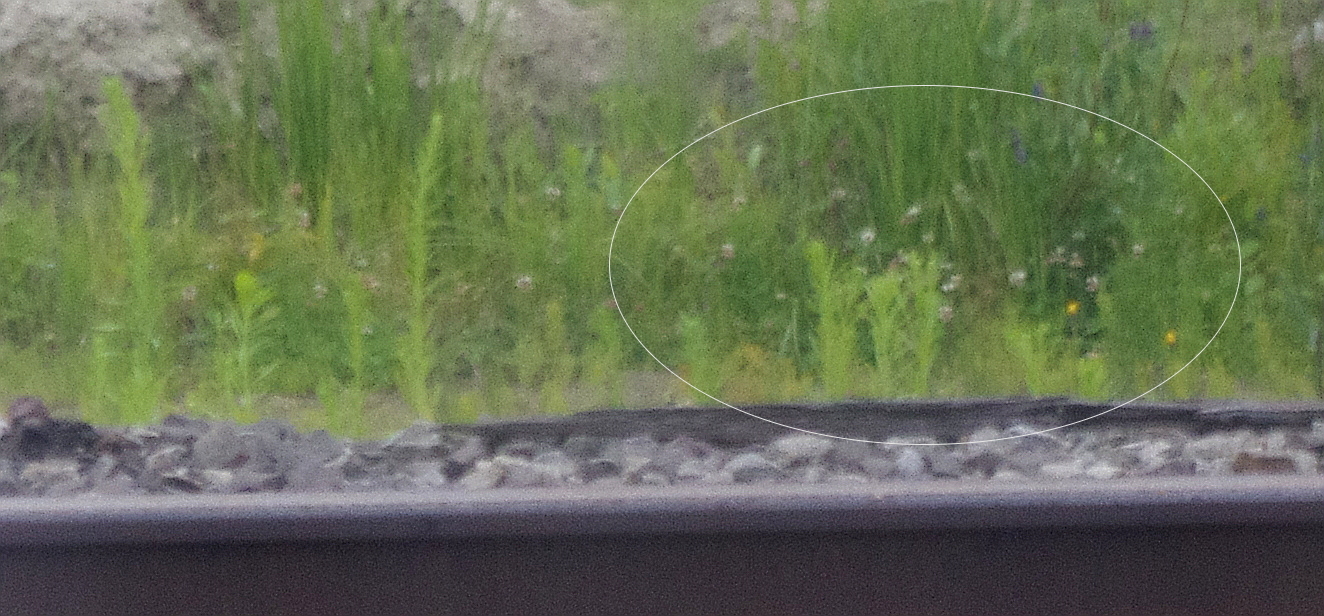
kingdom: Plantae
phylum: Tracheophyta
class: Magnoliopsida
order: Fabales
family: Fabaceae
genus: Trifolium
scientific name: Trifolium repens
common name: White clover
